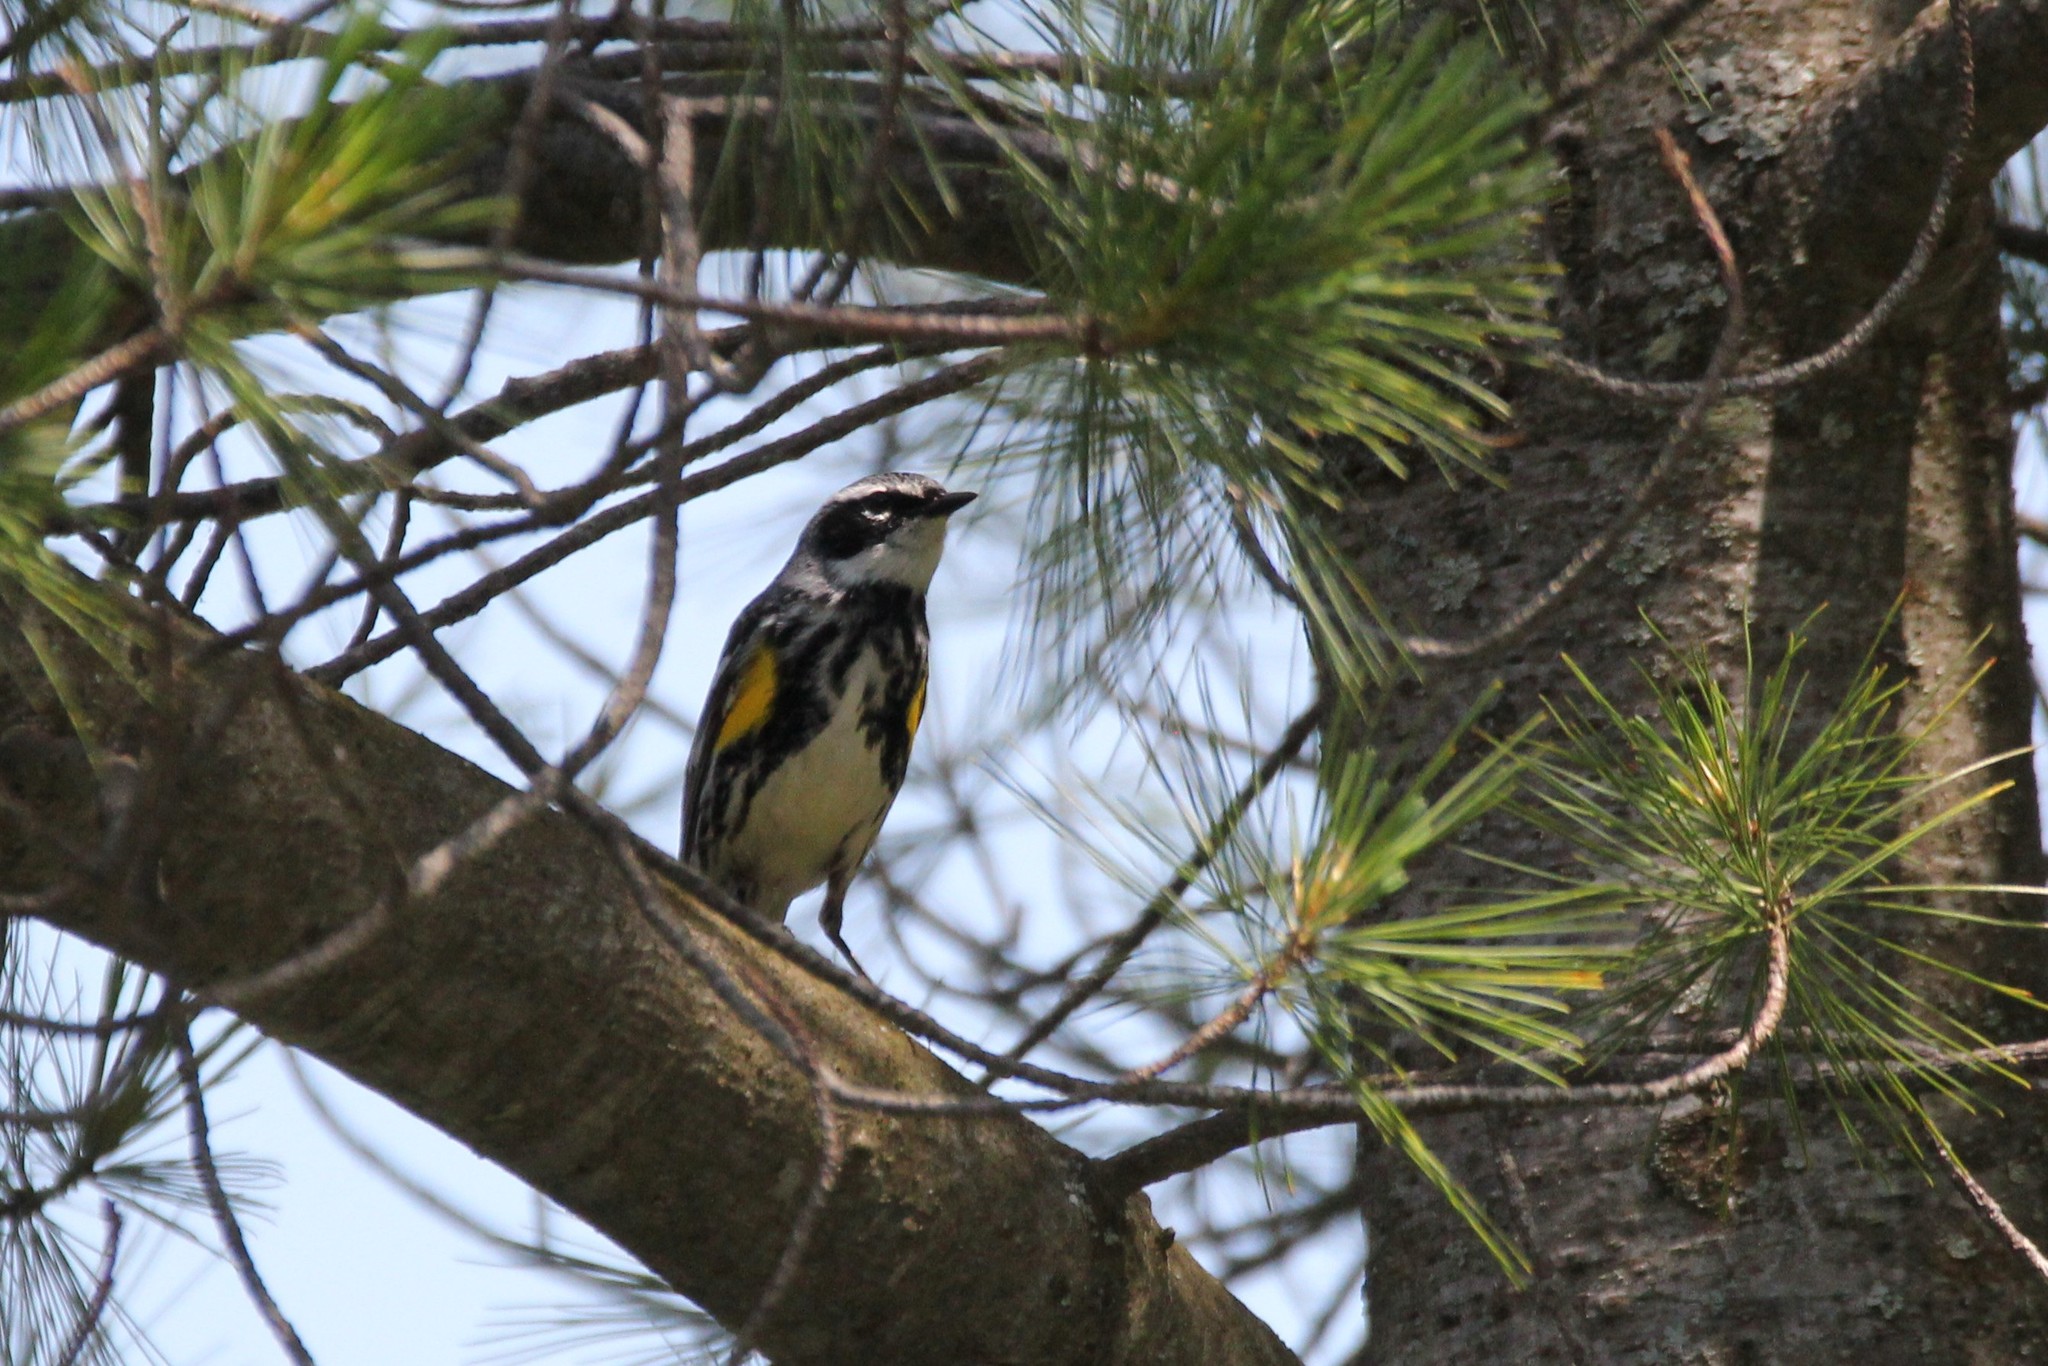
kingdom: Animalia
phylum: Chordata
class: Aves
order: Passeriformes
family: Parulidae
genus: Setophaga
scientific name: Setophaga coronata
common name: Myrtle warbler
